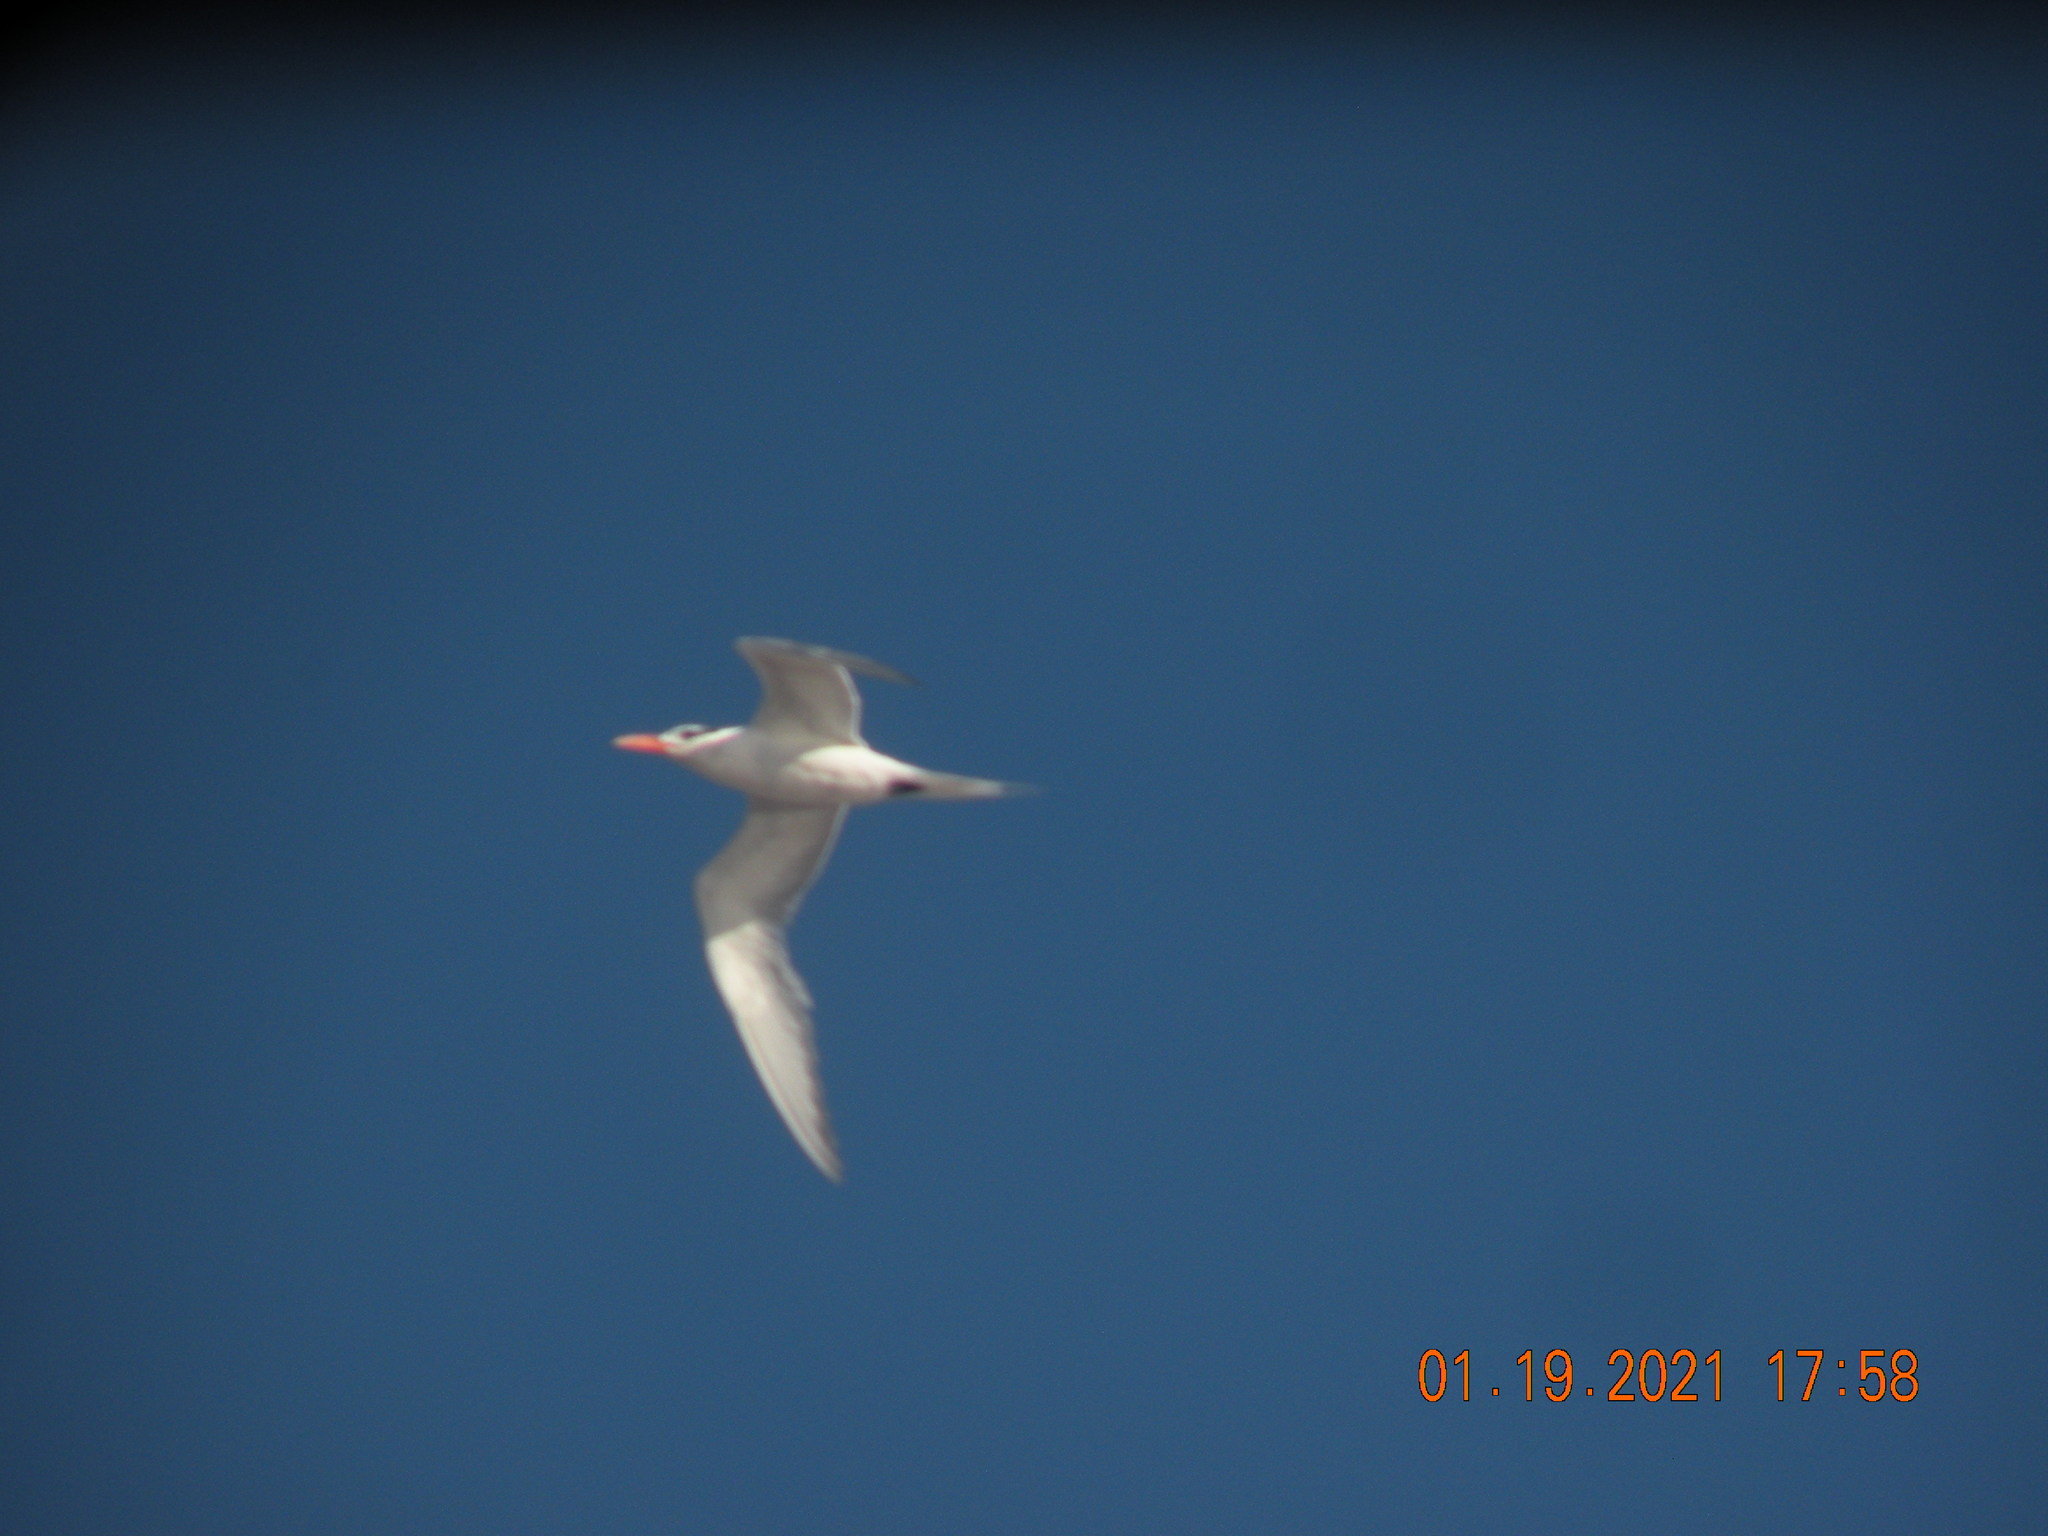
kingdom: Animalia
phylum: Chordata
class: Aves
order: Charadriiformes
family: Laridae
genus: Thalasseus
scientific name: Thalasseus maximus
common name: Royal tern
